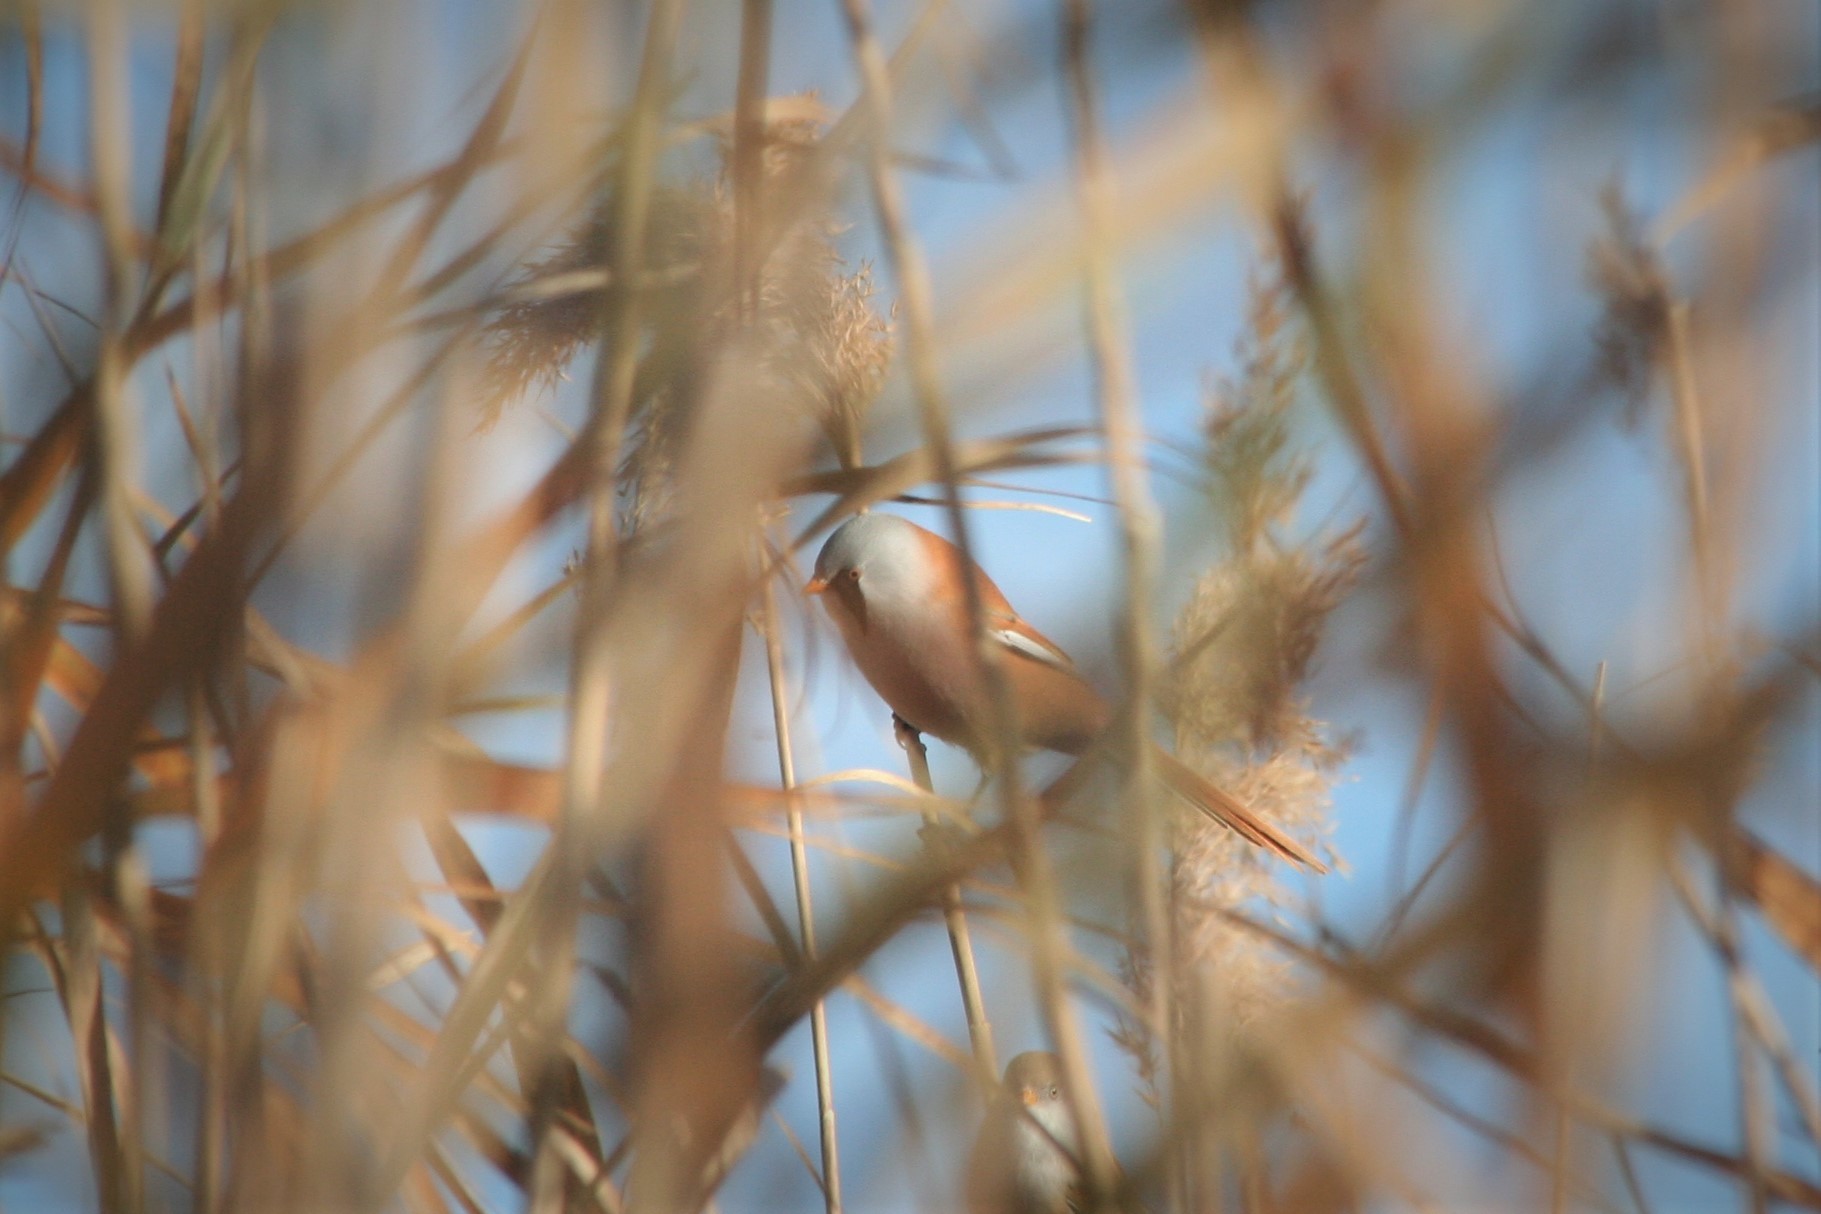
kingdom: Animalia
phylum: Chordata
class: Aves
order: Passeriformes
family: Panuridae
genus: Panurus
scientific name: Panurus biarmicus
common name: Bearded reedling
